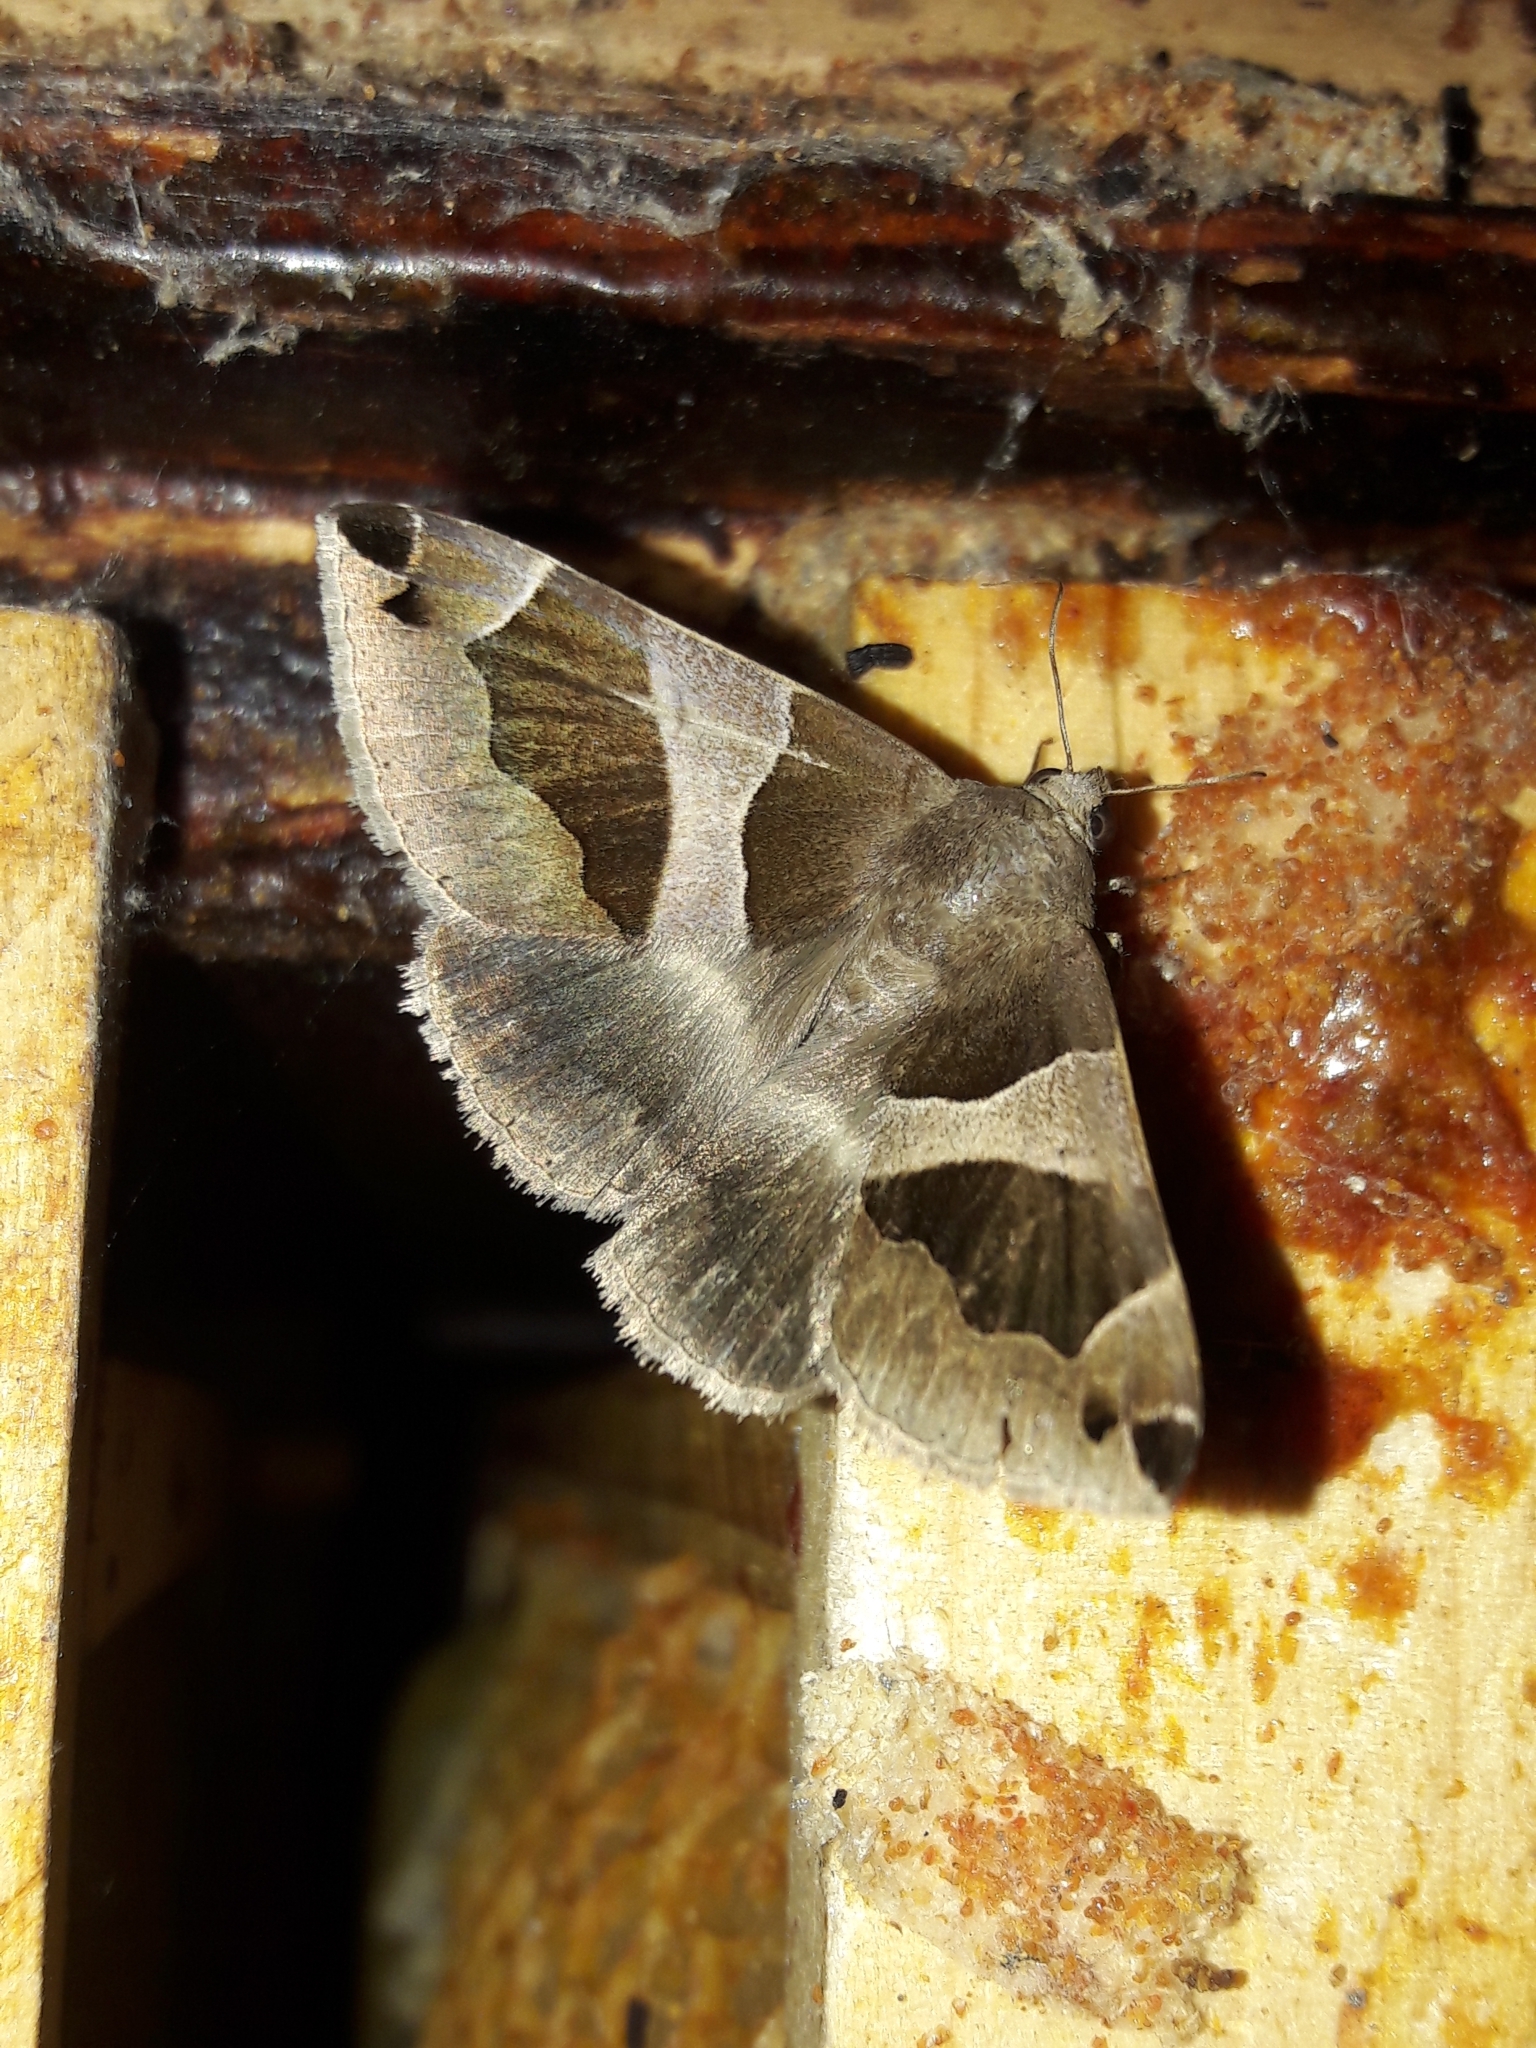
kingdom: Animalia
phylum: Arthropoda
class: Insecta
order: Lepidoptera
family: Erebidae
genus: Dysgonia
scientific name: Dysgonia algira
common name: Passenger
